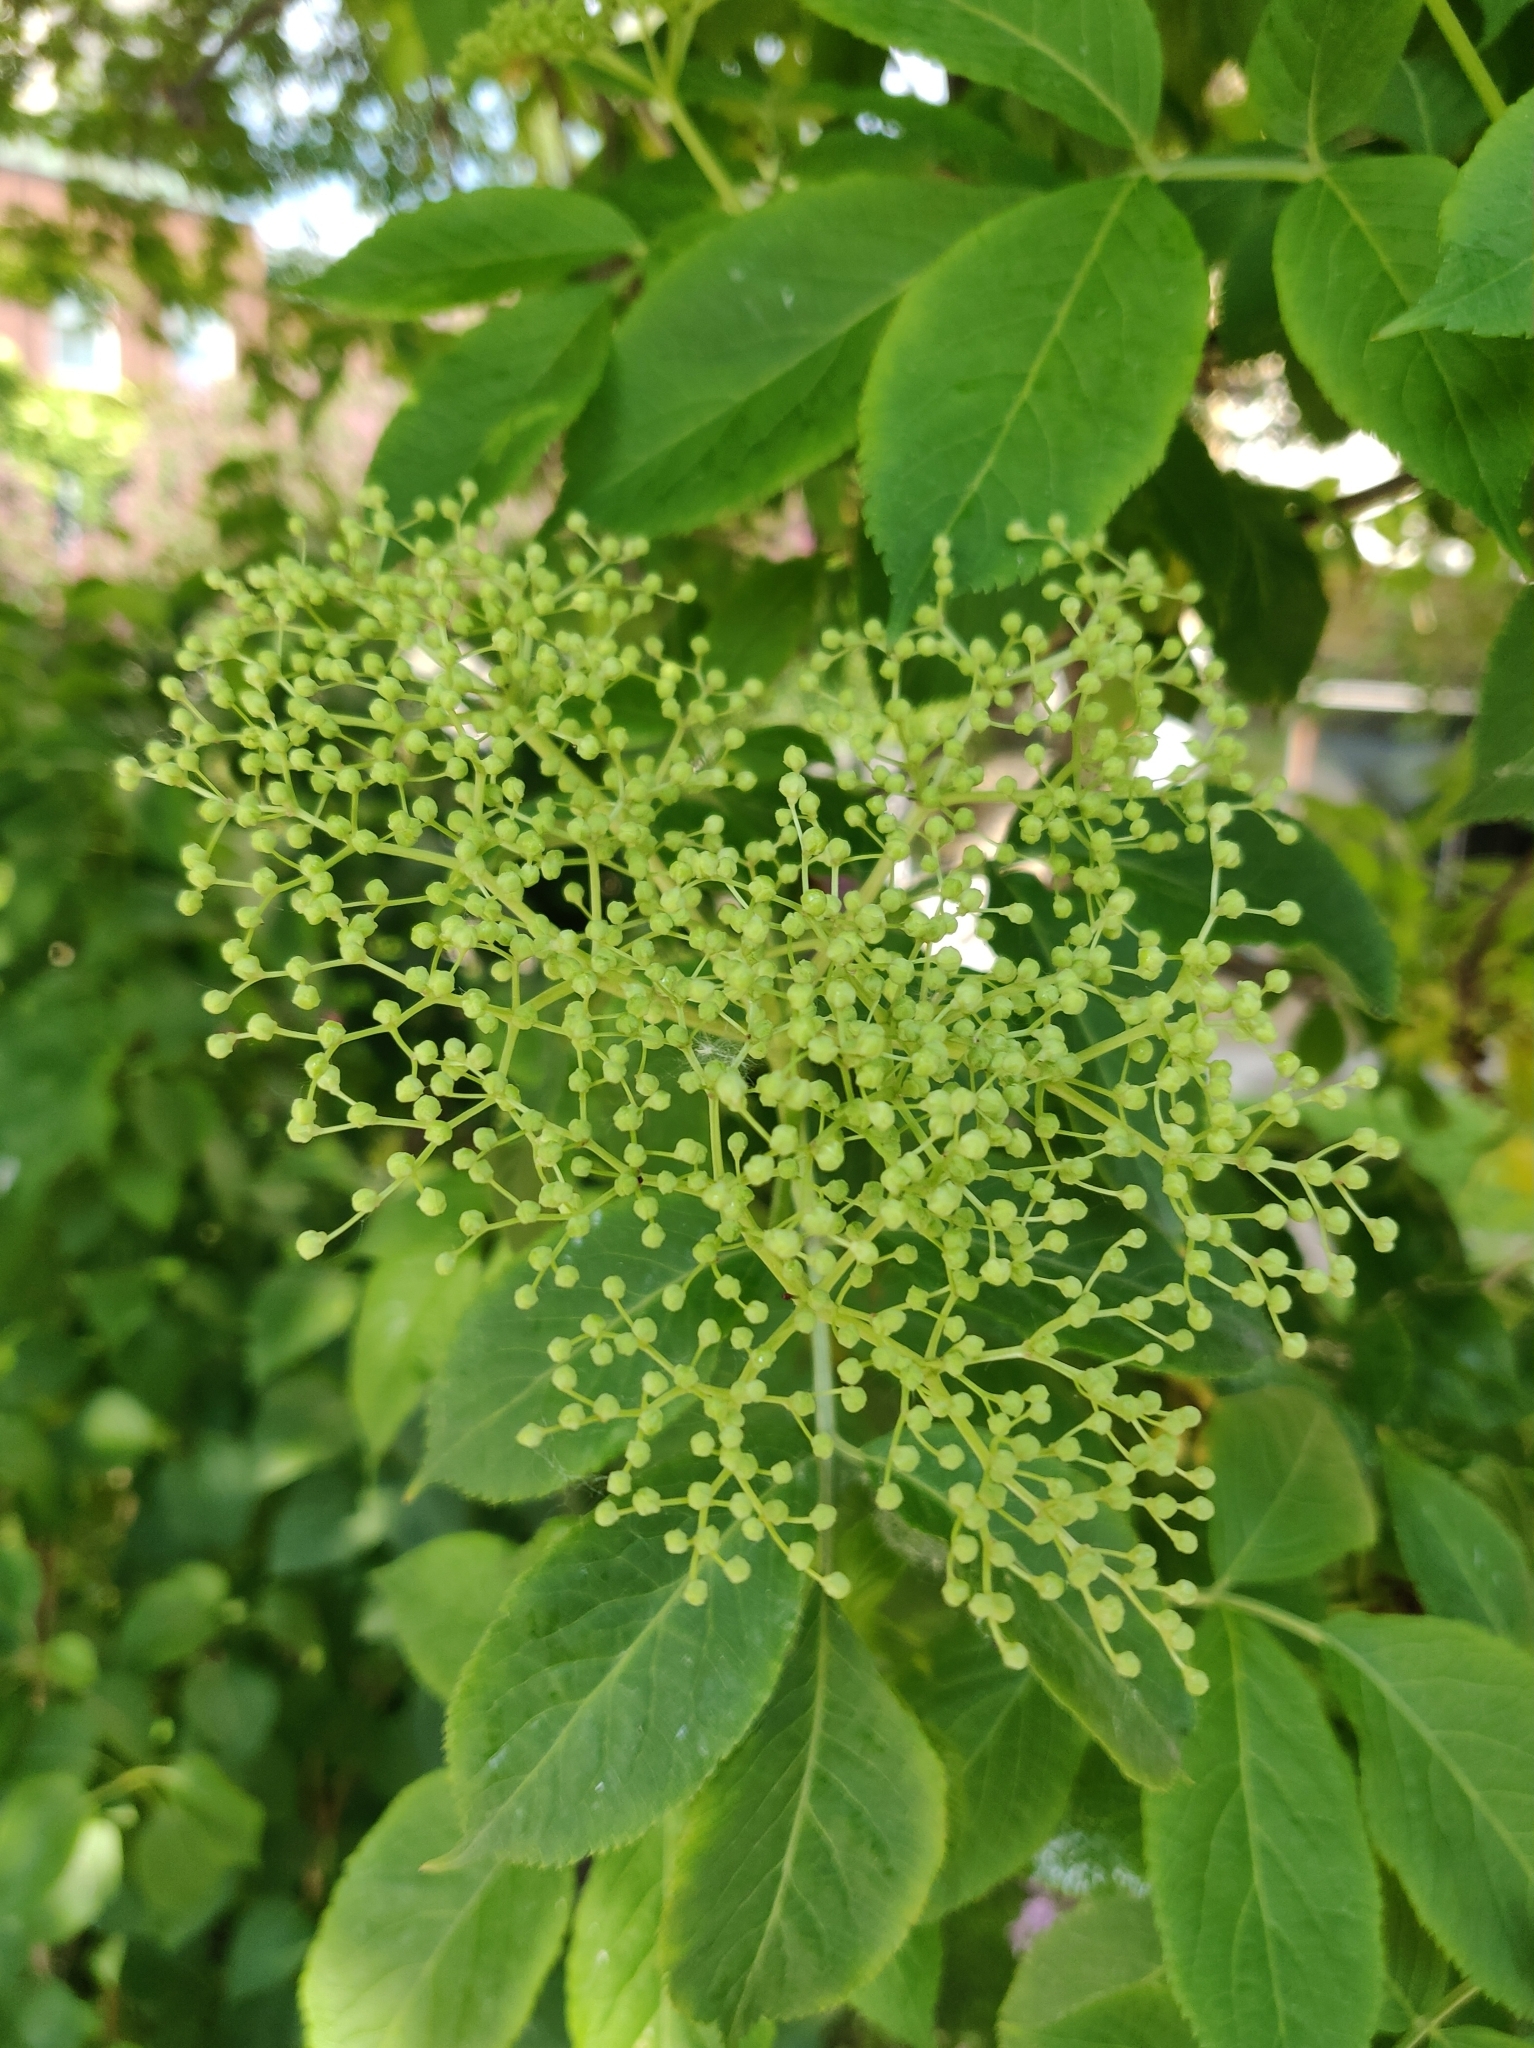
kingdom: Plantae
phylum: Tracheophyta
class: Magnoliopsida
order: Dipsacales
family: Viburnaceae
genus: Sambucus
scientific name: Sambucus nigra
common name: Elder
